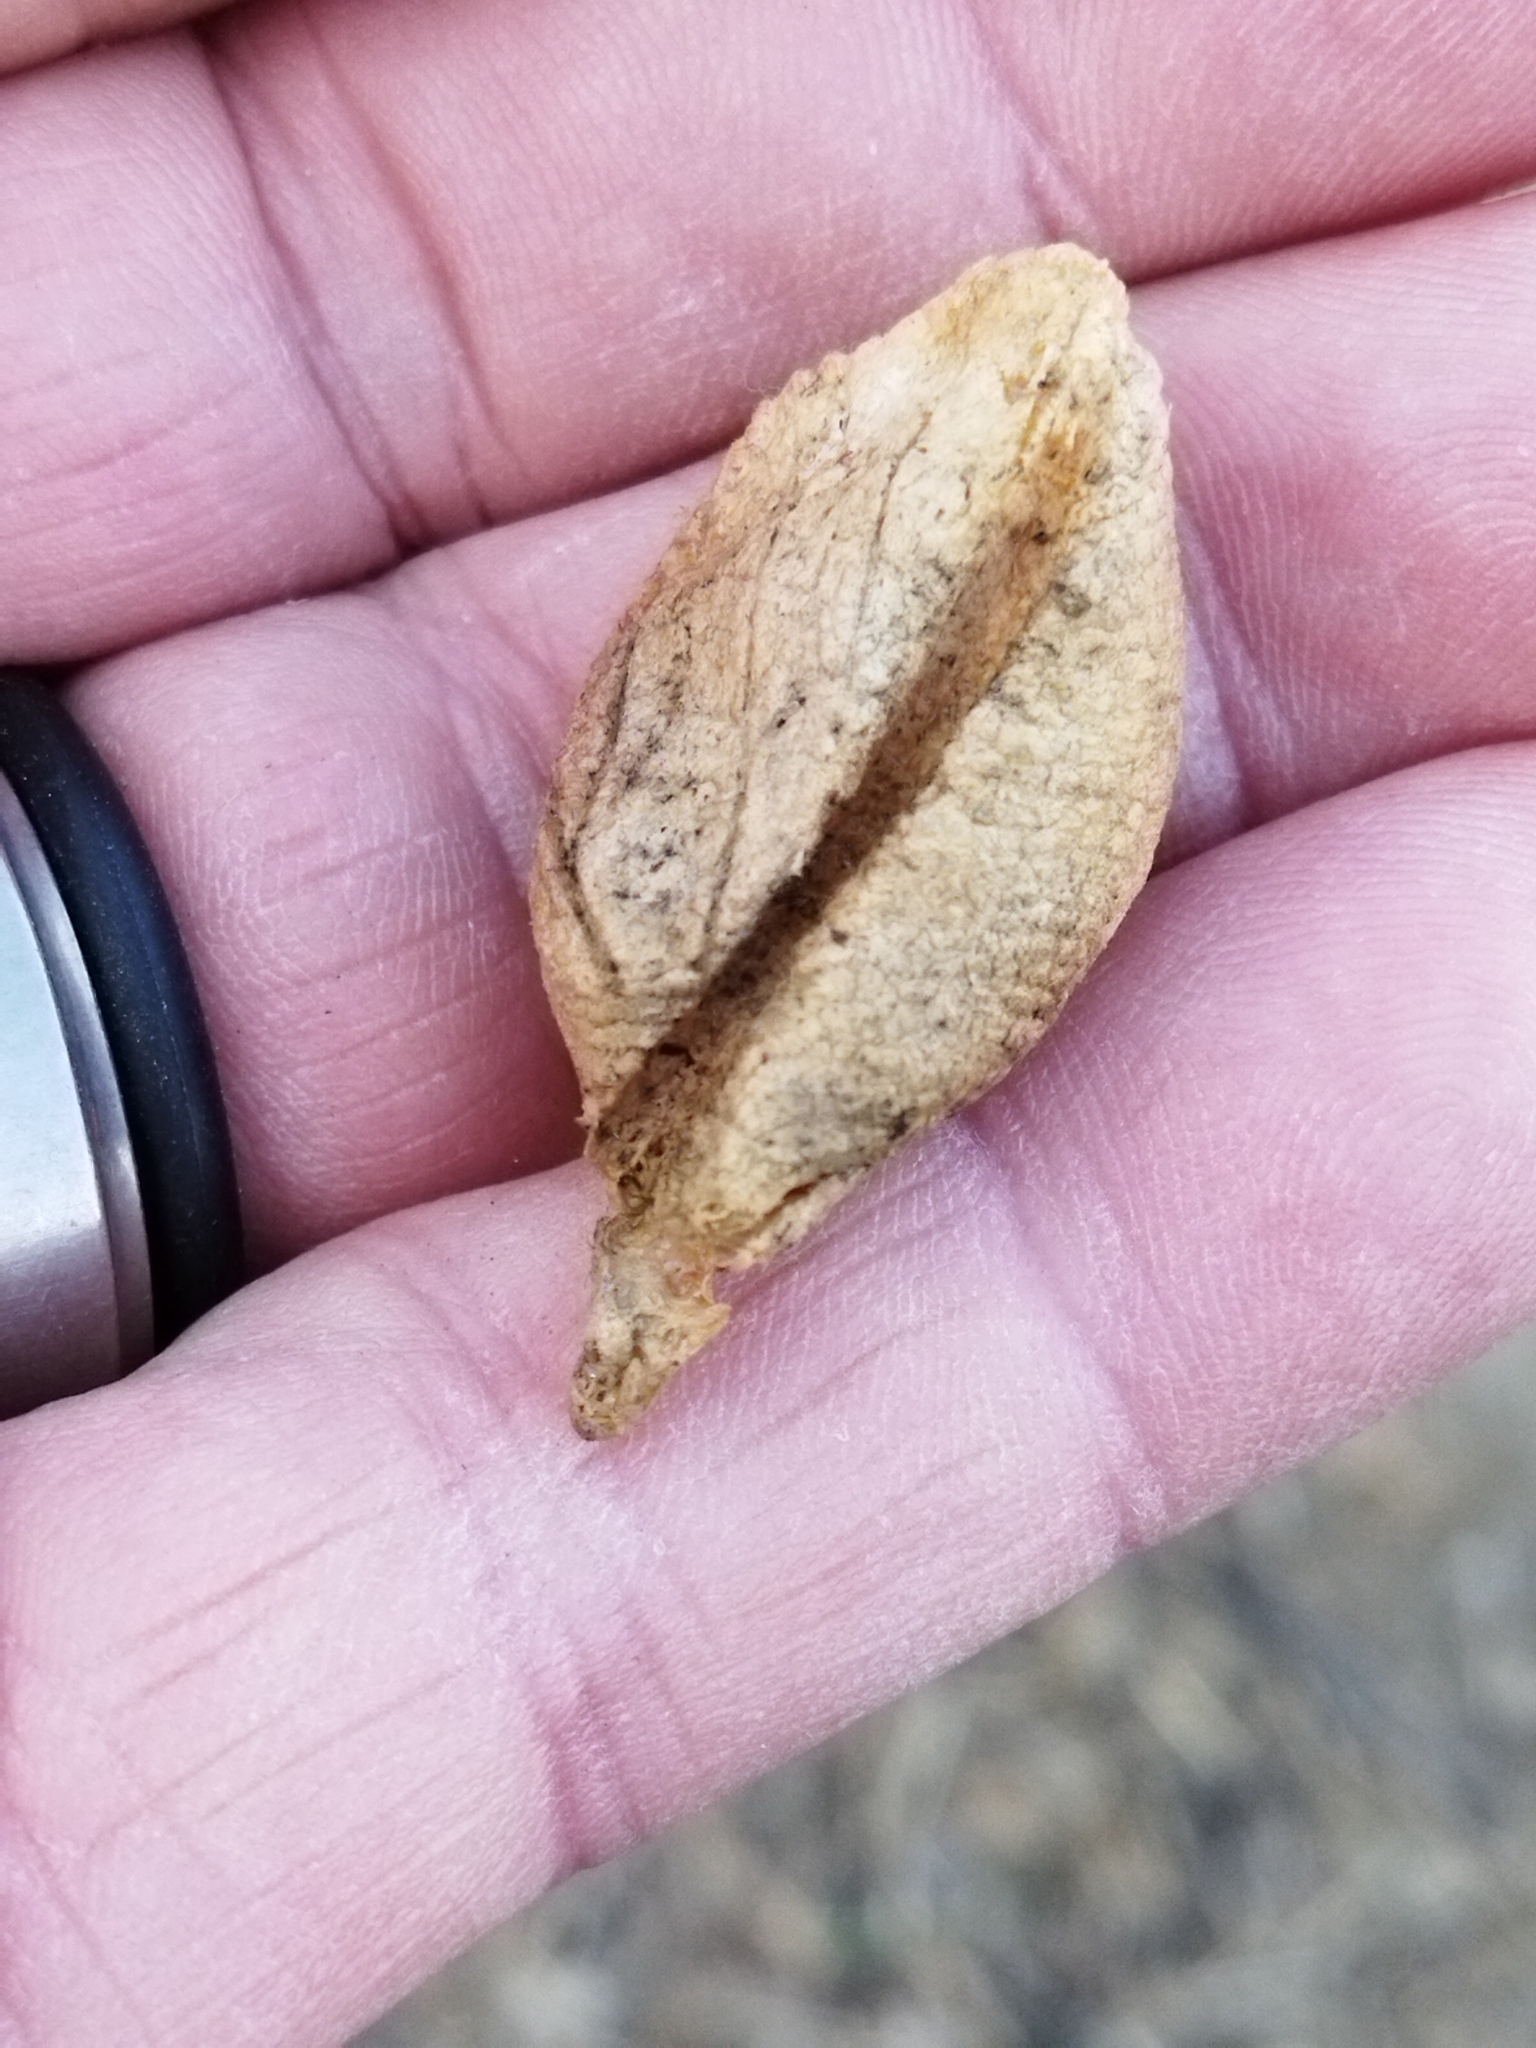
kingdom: Animalia
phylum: Arthropoda
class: Insecta
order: Mantodea
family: Mantidae
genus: Mantis
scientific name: Mantis religiosa
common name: Praying mantis
